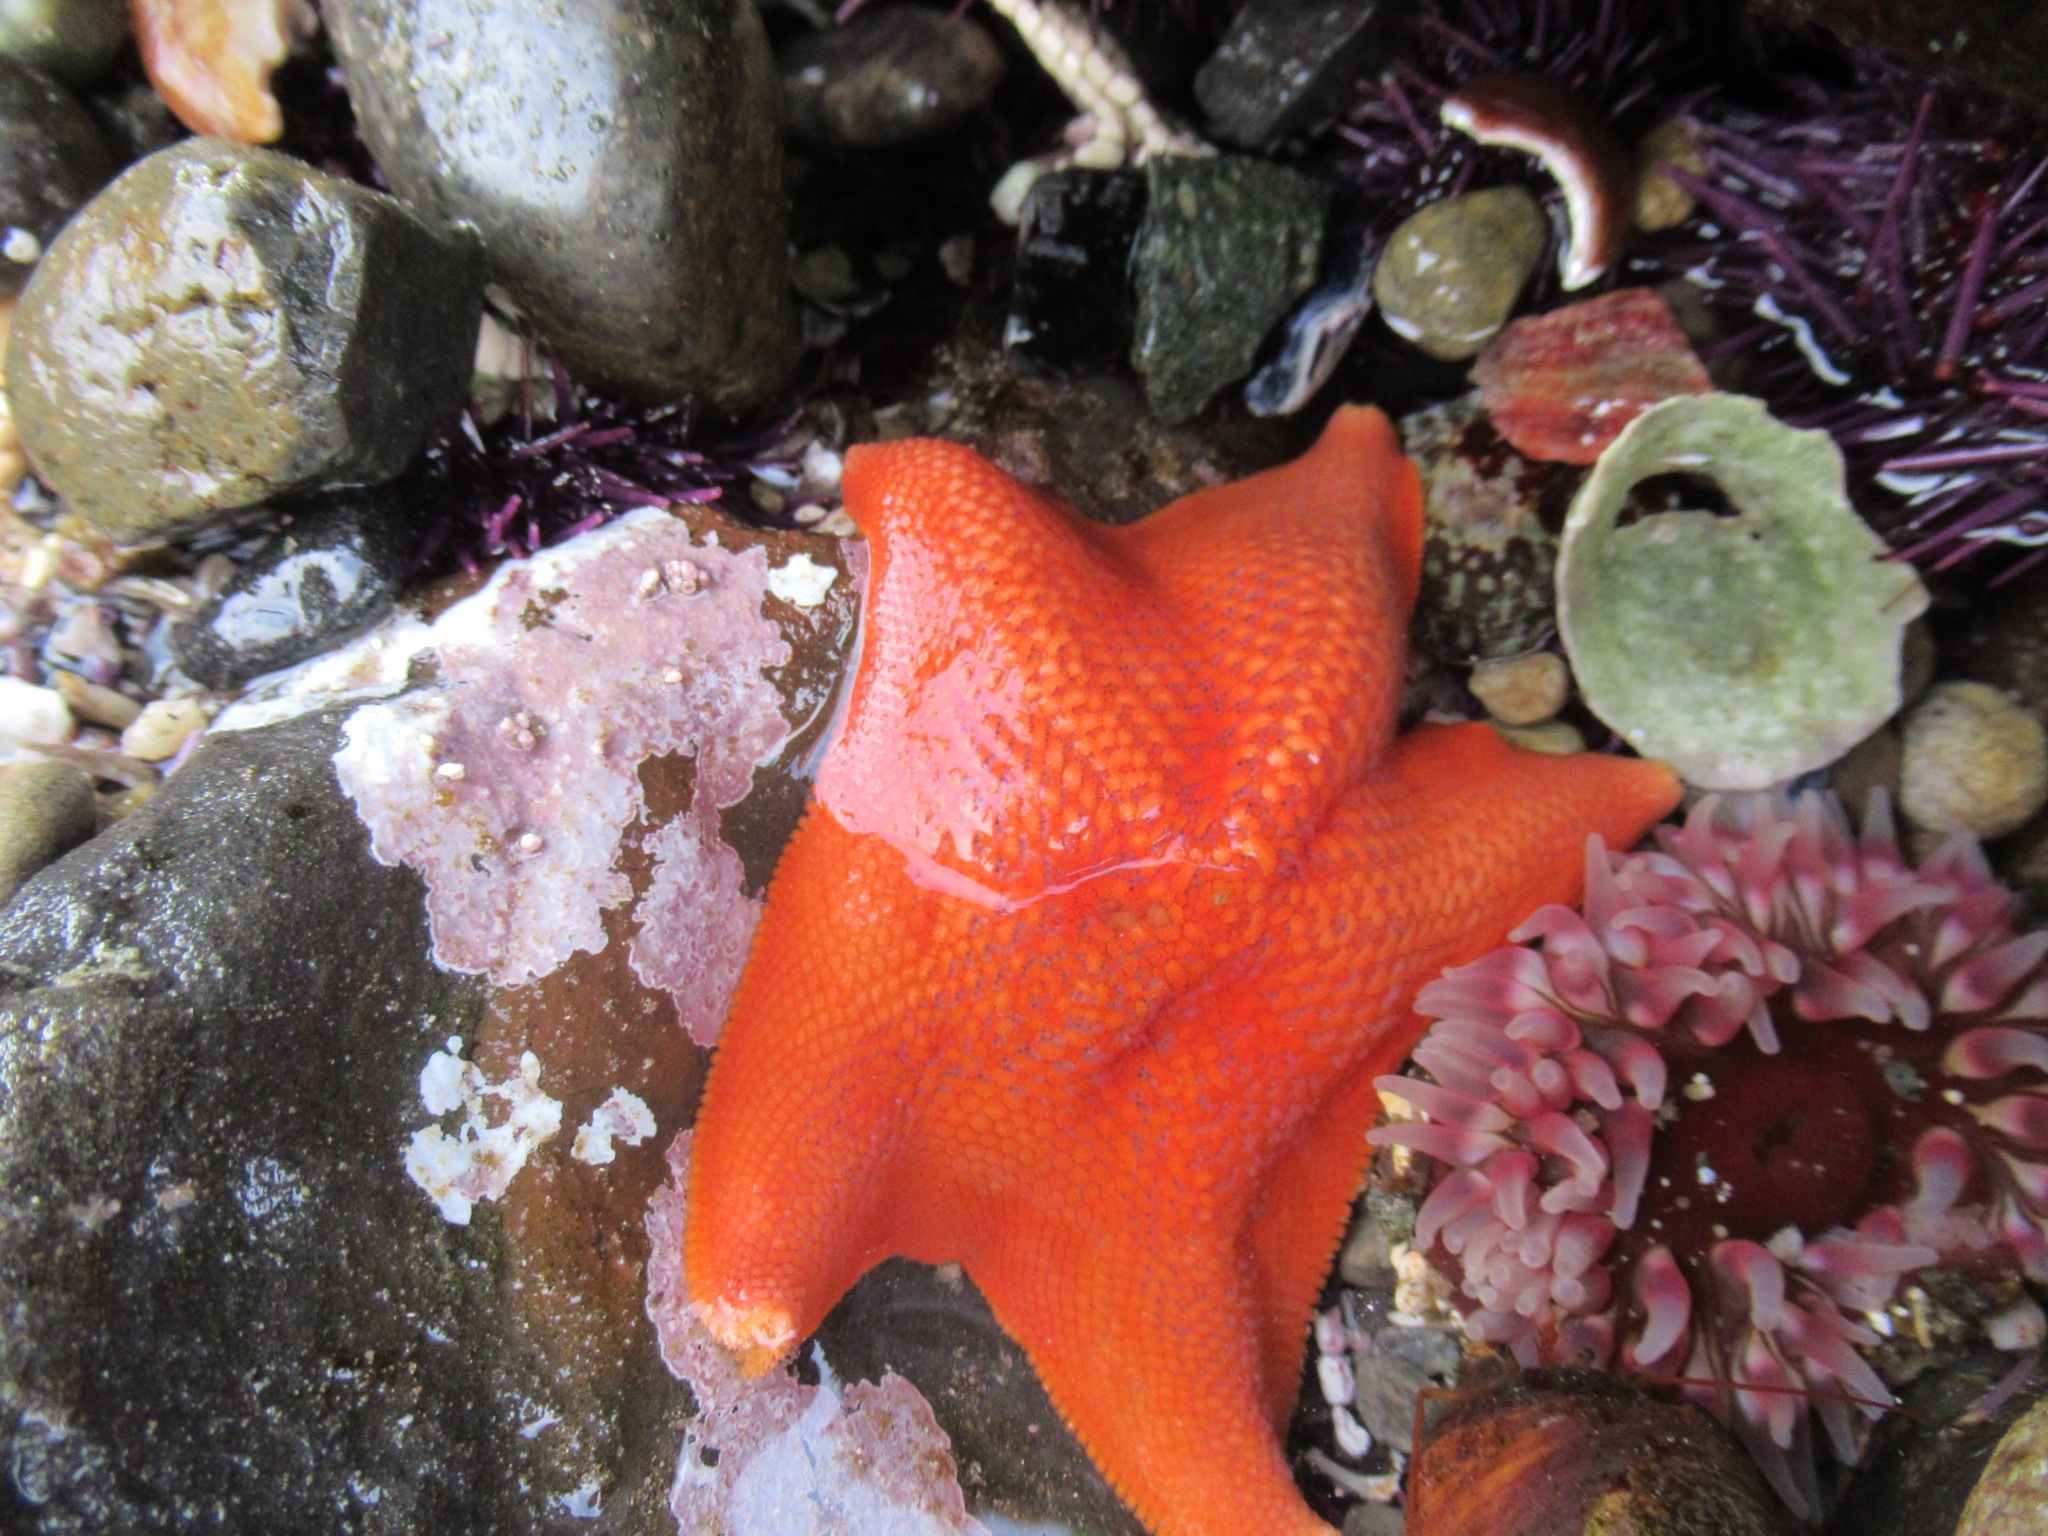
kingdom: Animalia
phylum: Echinodermata
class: Asteroidea
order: Valvatida
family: Asterinidae
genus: Patiria
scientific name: Patiria miniata
